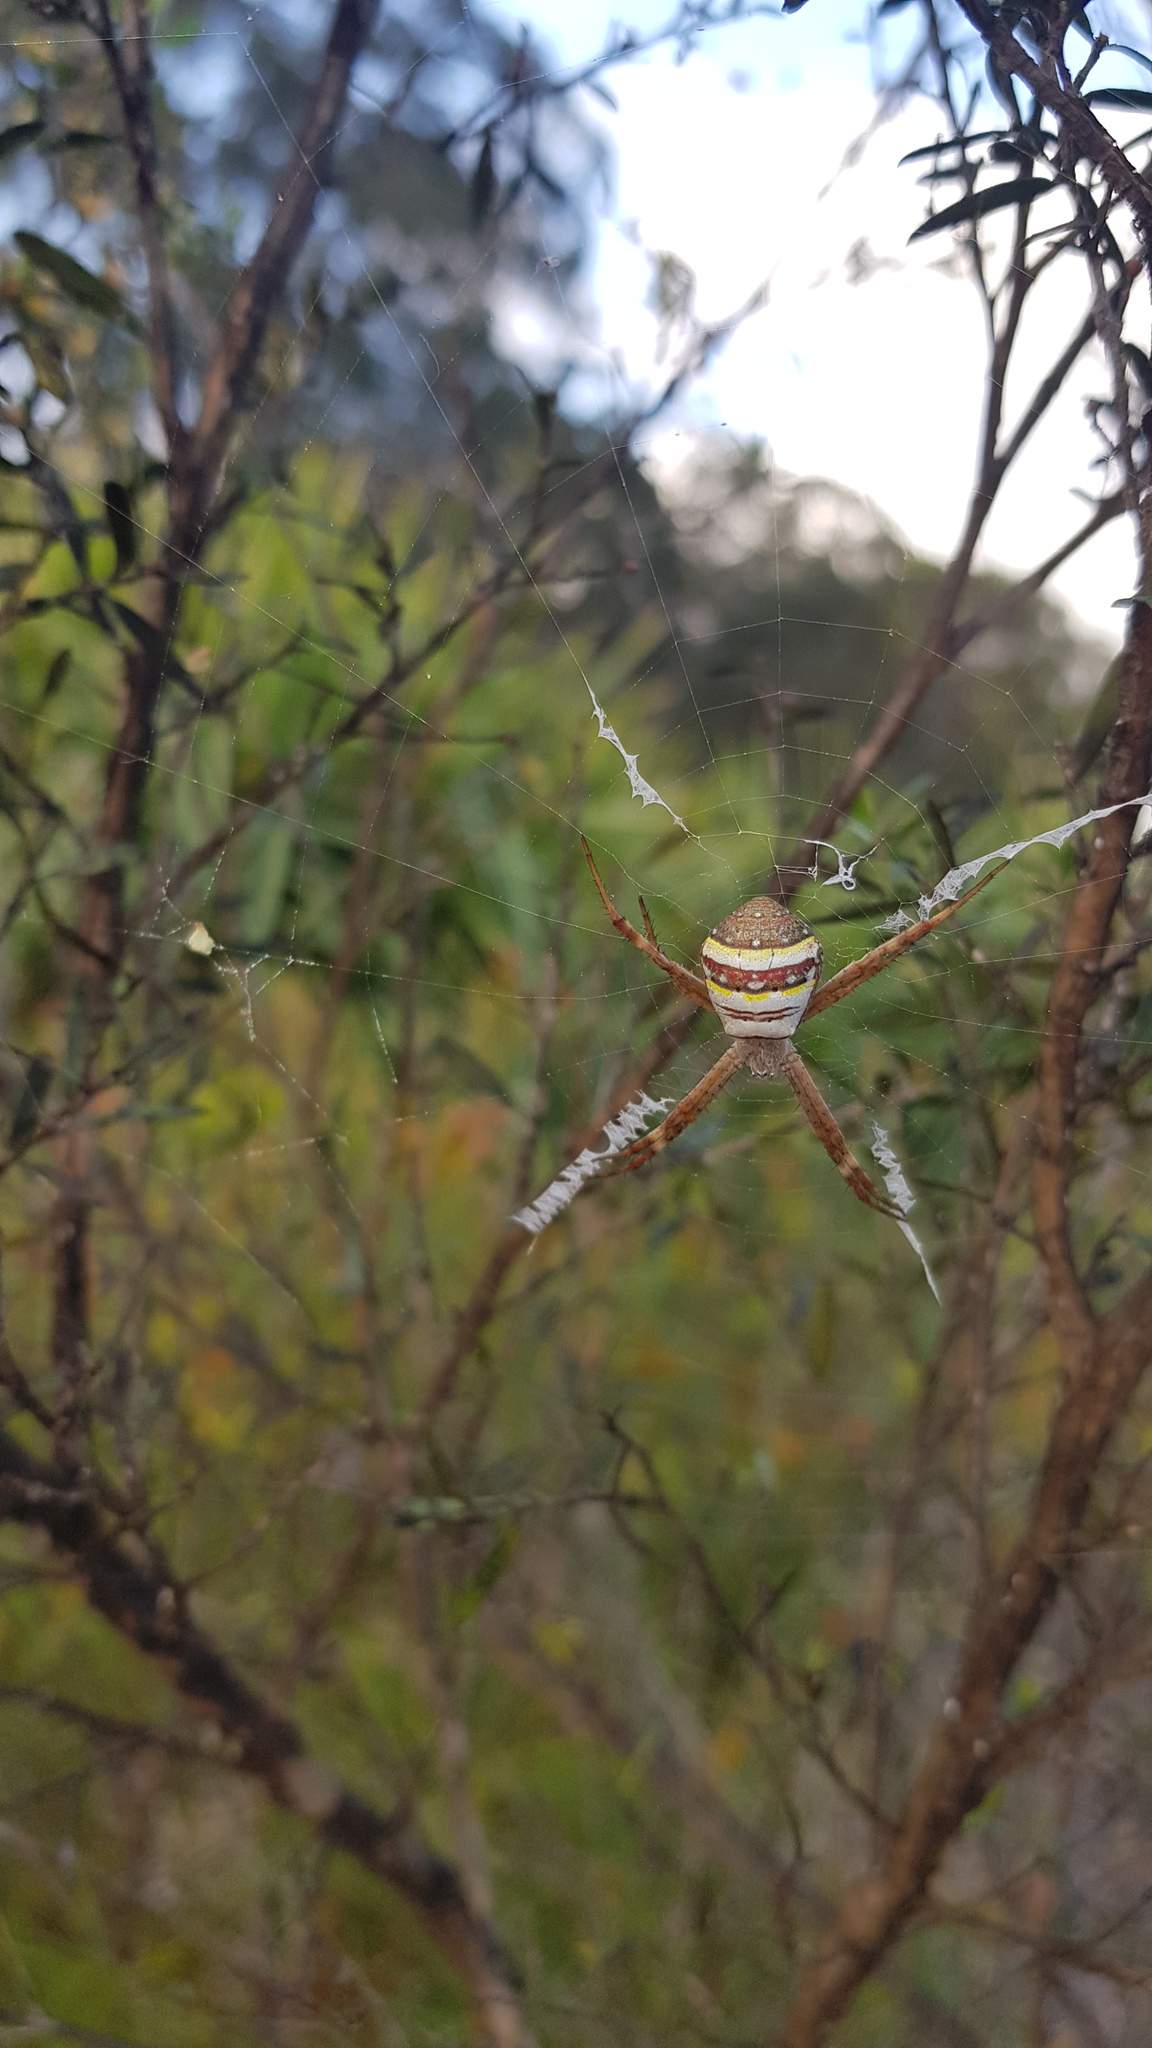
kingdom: Animalia
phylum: Arthropoda
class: Arachnida
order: Araneae
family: Araneidae
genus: Argiope
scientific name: Argiope keyserlingi
